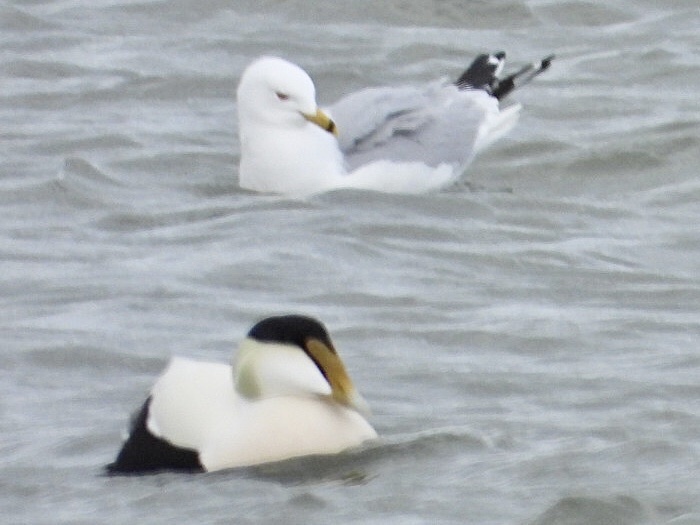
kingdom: Animalia
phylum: Chordata
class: Aves
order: Charadriiformes
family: Laridae
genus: Larus
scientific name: Larus delawarensis
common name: Ring-billed gull
